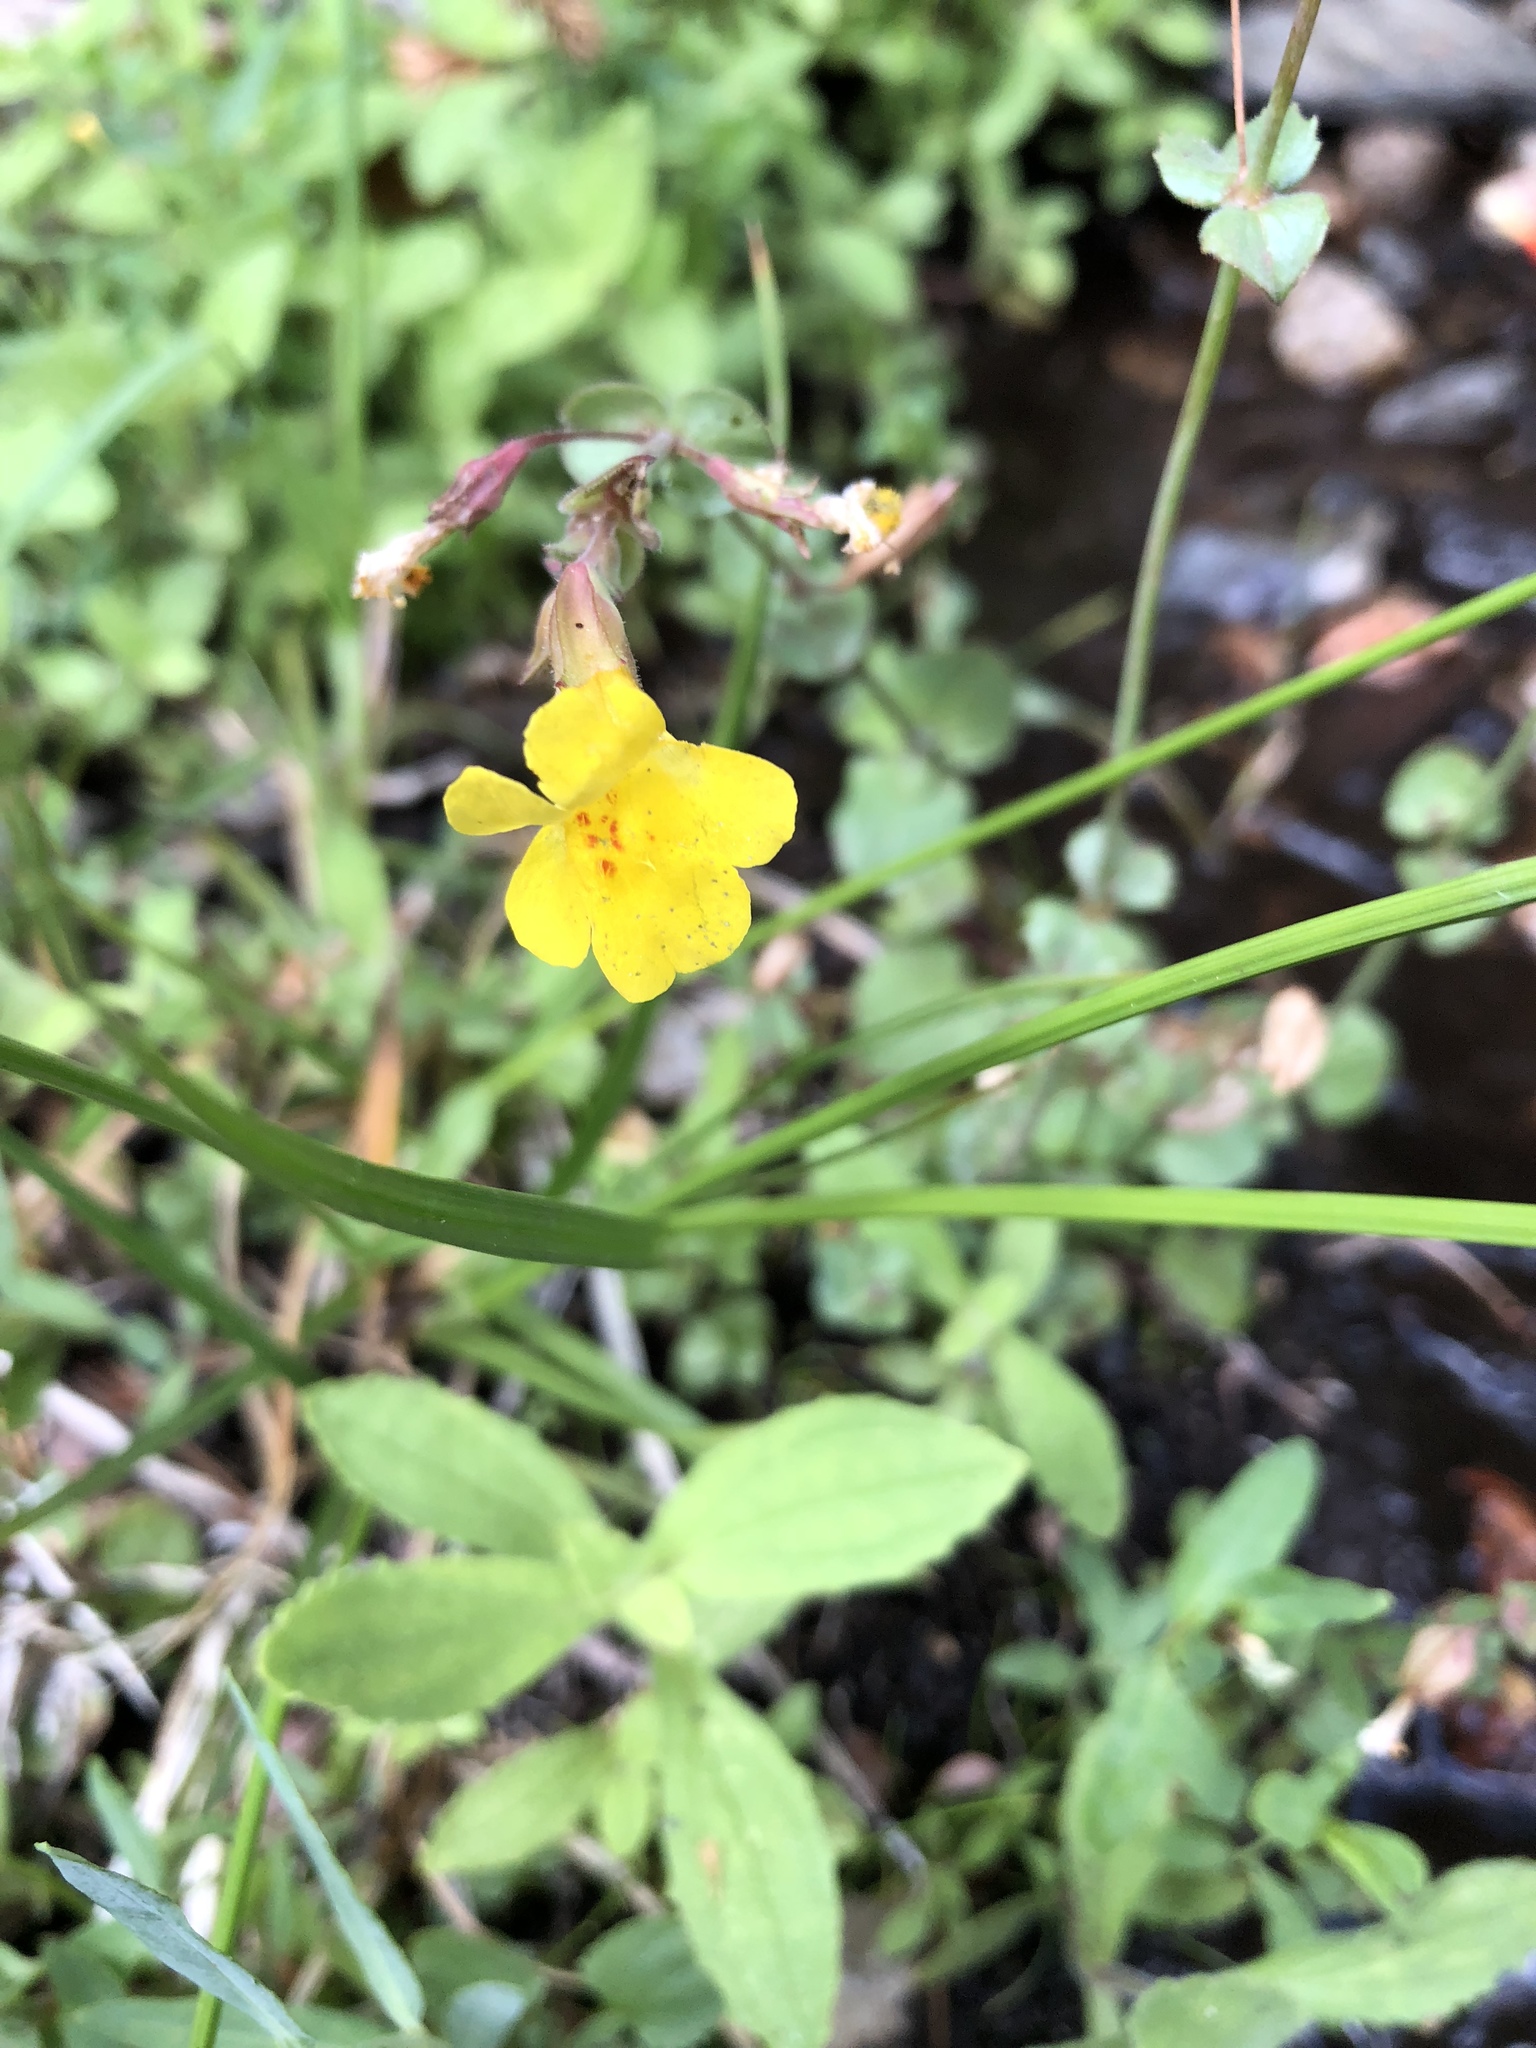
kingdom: Plantae
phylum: Tracheophyta
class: Magnoliopsida
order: Lamiales
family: Phrymaceae
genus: Erythranthe
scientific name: Erythranthe guttata
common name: Monkeyflower
